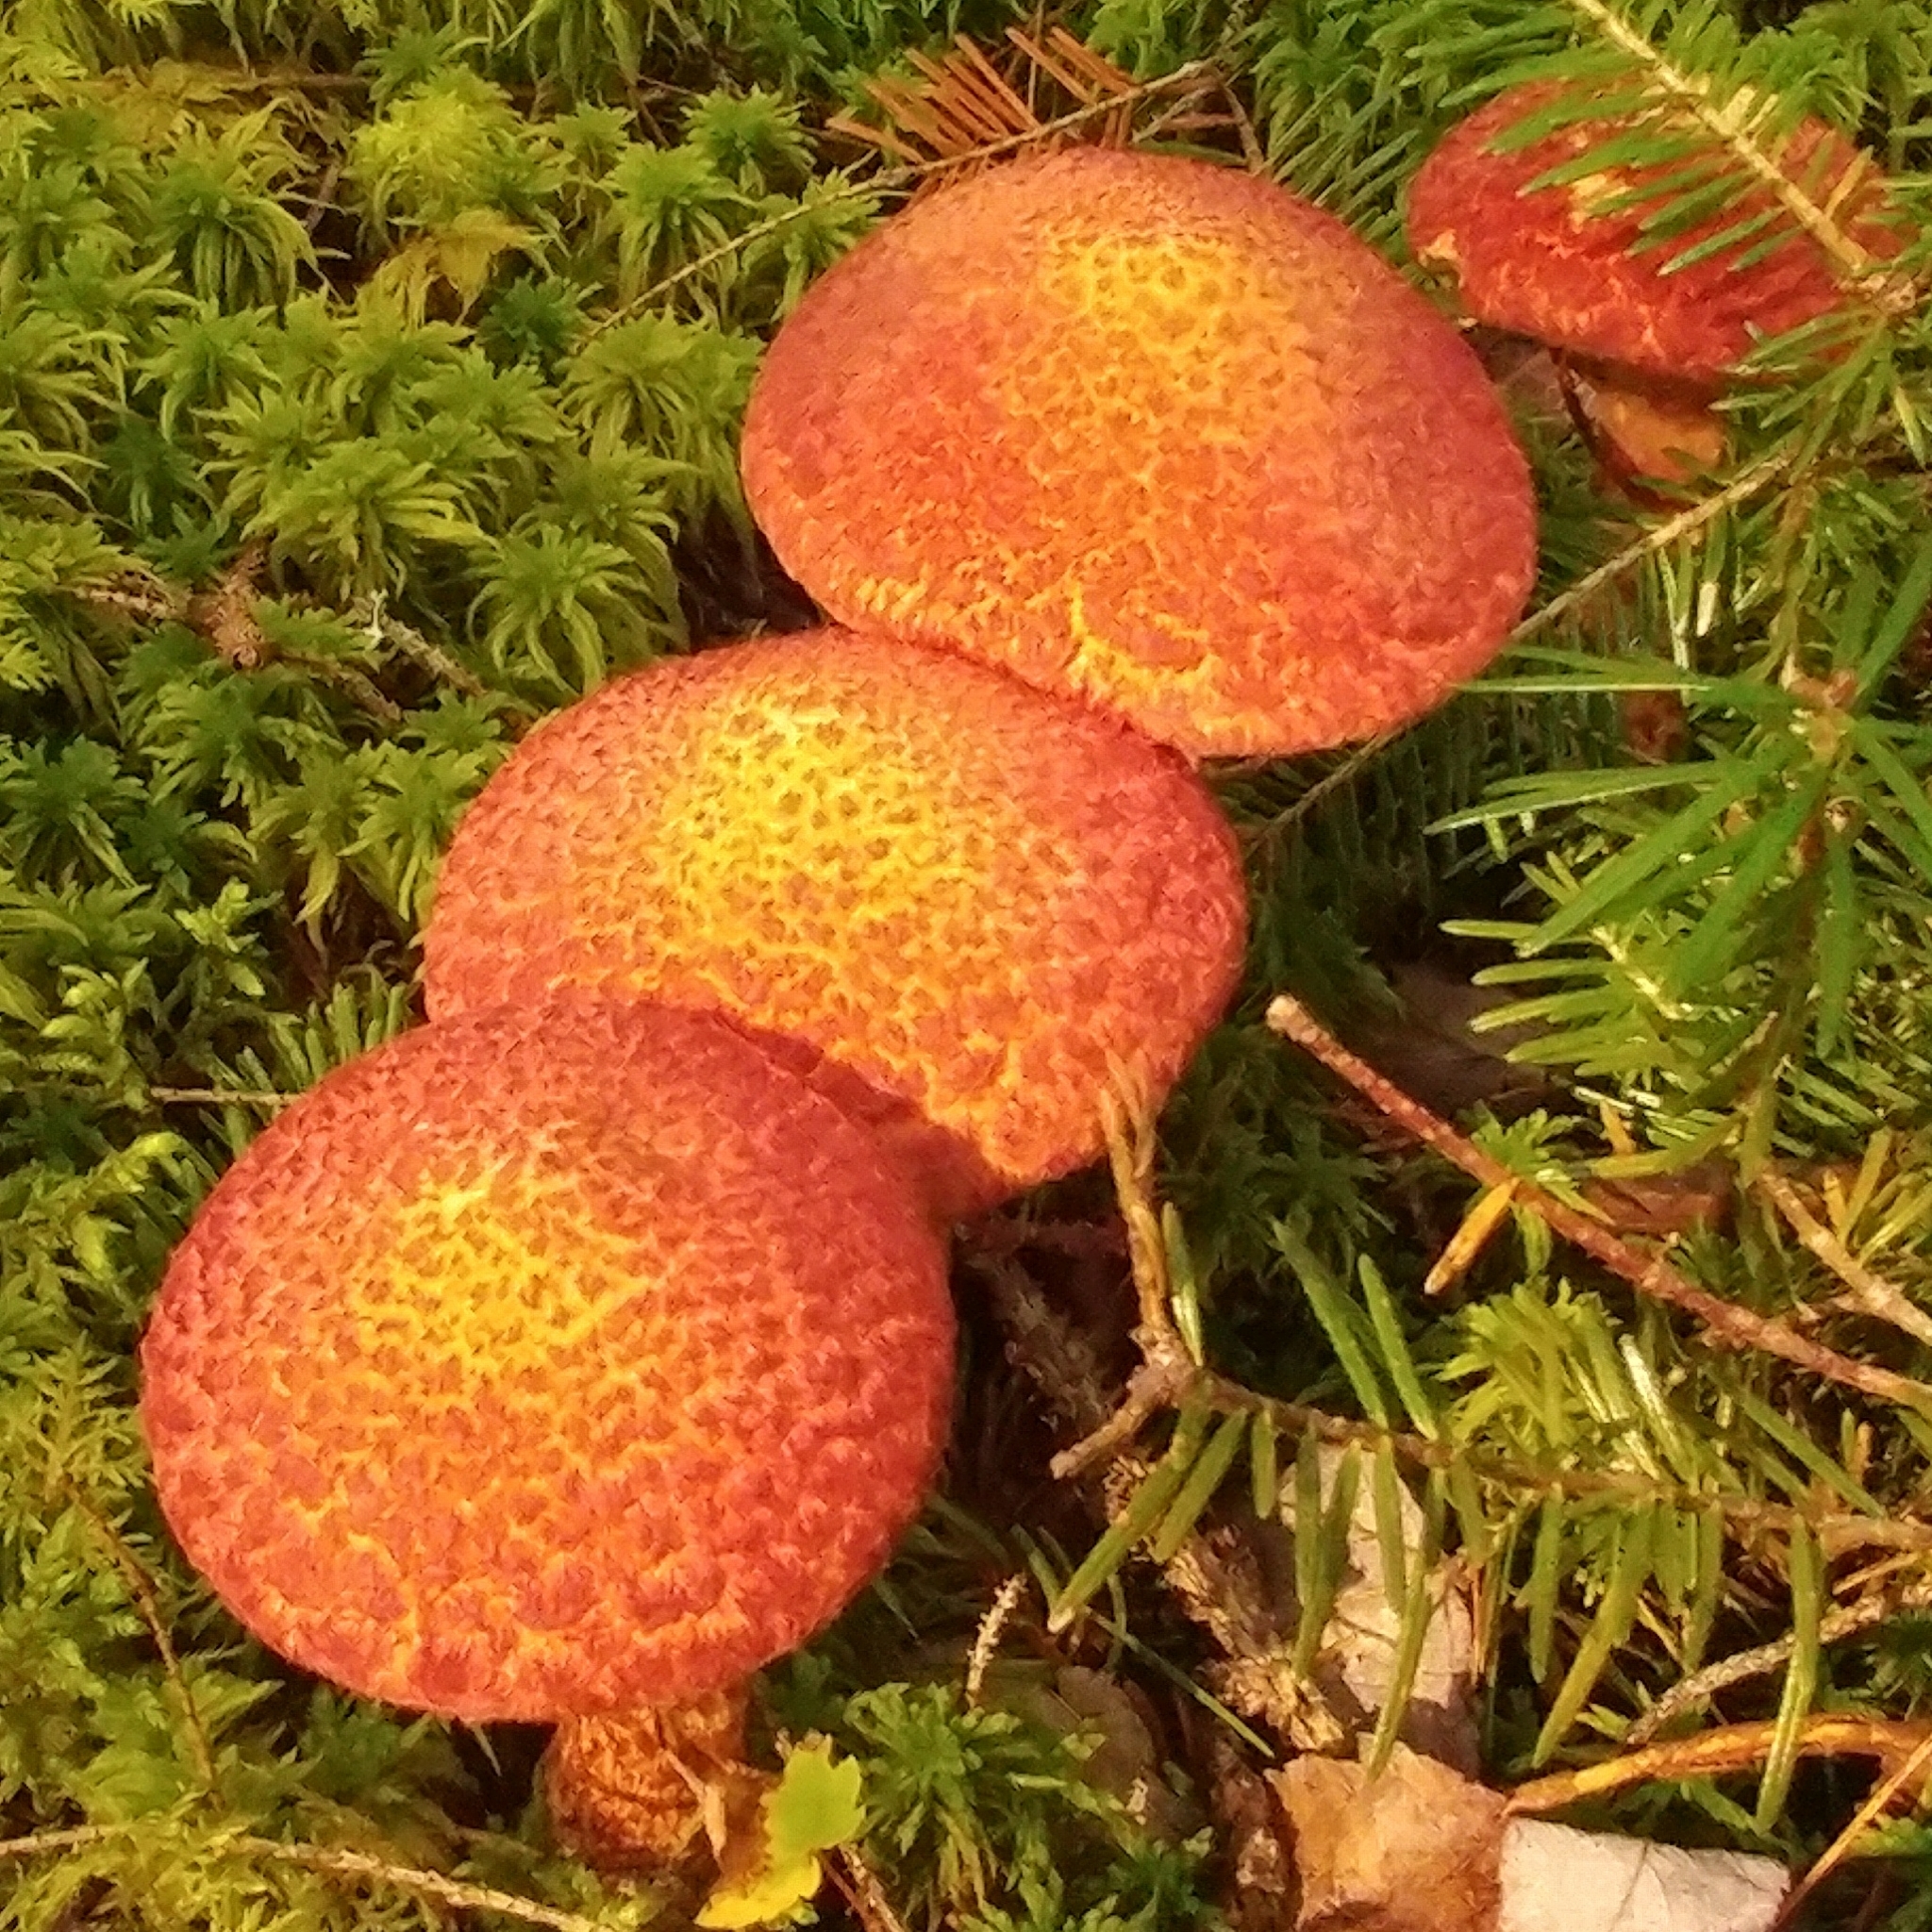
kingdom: Fungi
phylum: Basidiomycota
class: Agaricomycetes
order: Boletales
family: Suillaceae
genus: Suillus
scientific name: Suillus spraguei
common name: Painted suillus
